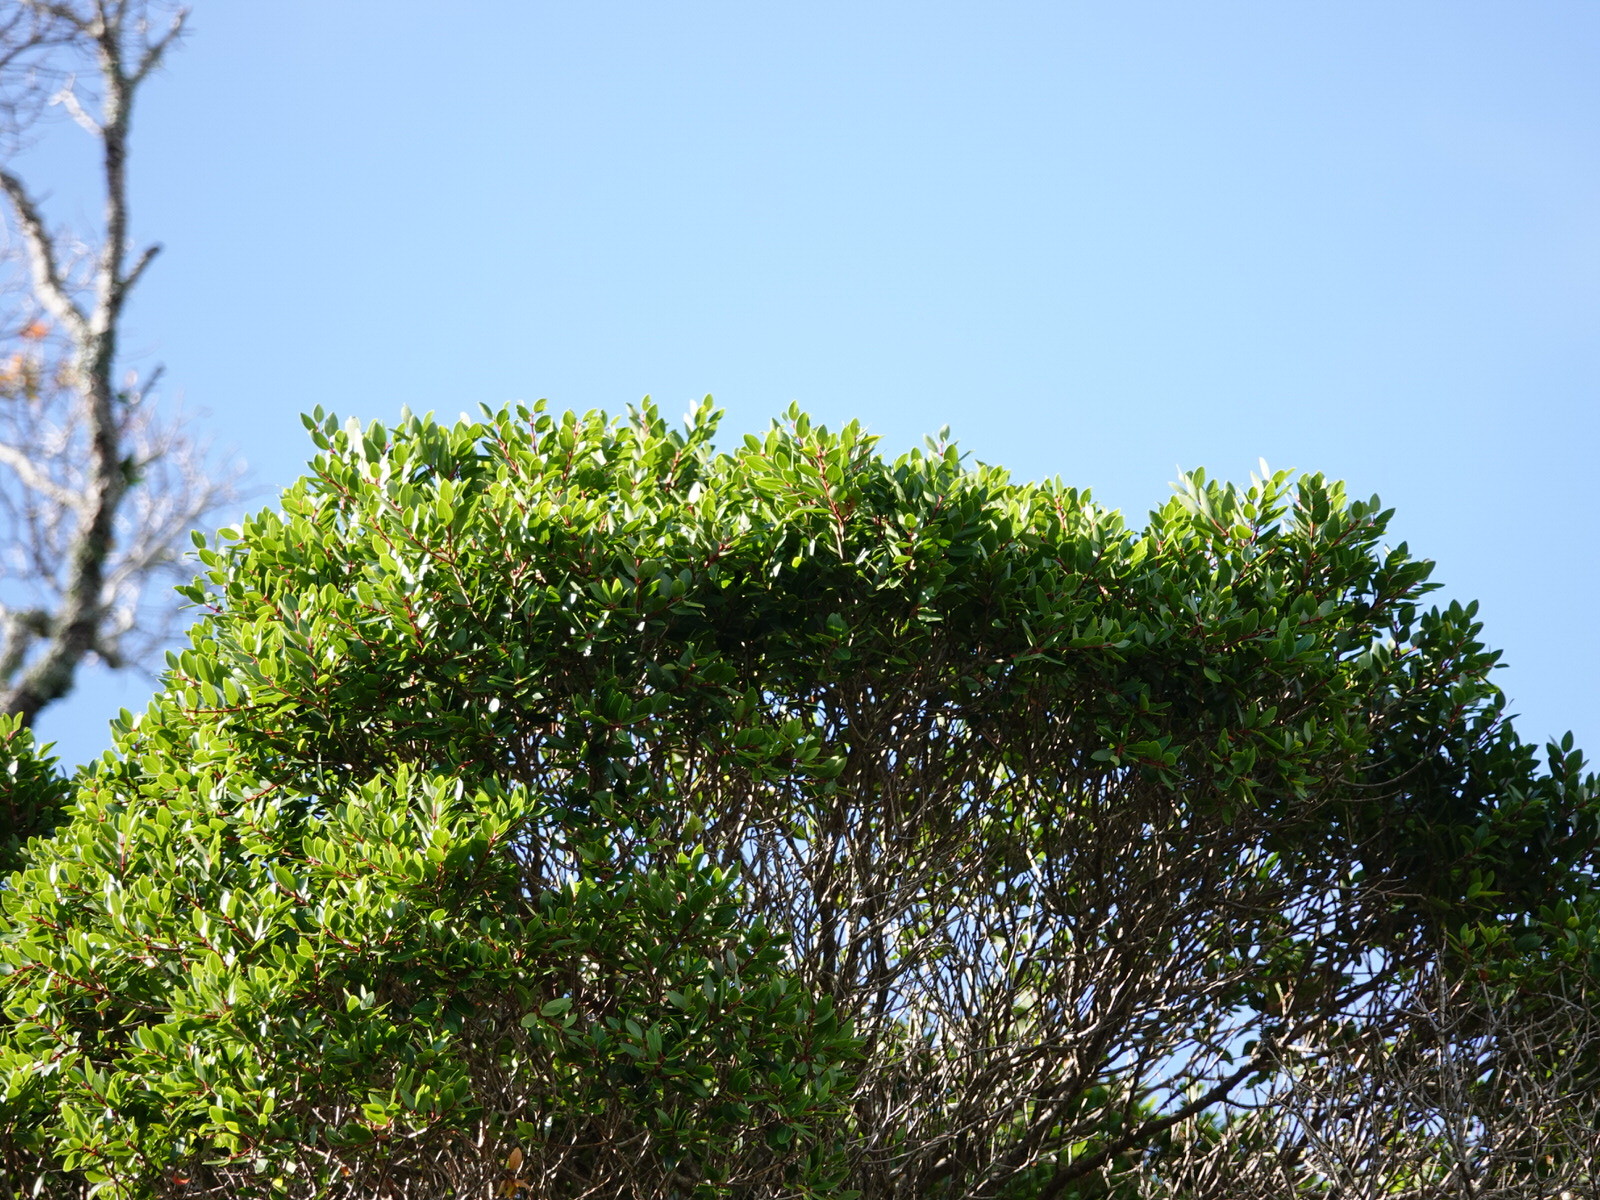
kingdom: Plantae
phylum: Tracheophyta
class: Magnoliopsida
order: Myrtales
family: Myrtaceae
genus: Metrosideros
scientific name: Metrosideros robusta
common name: Northern rata
